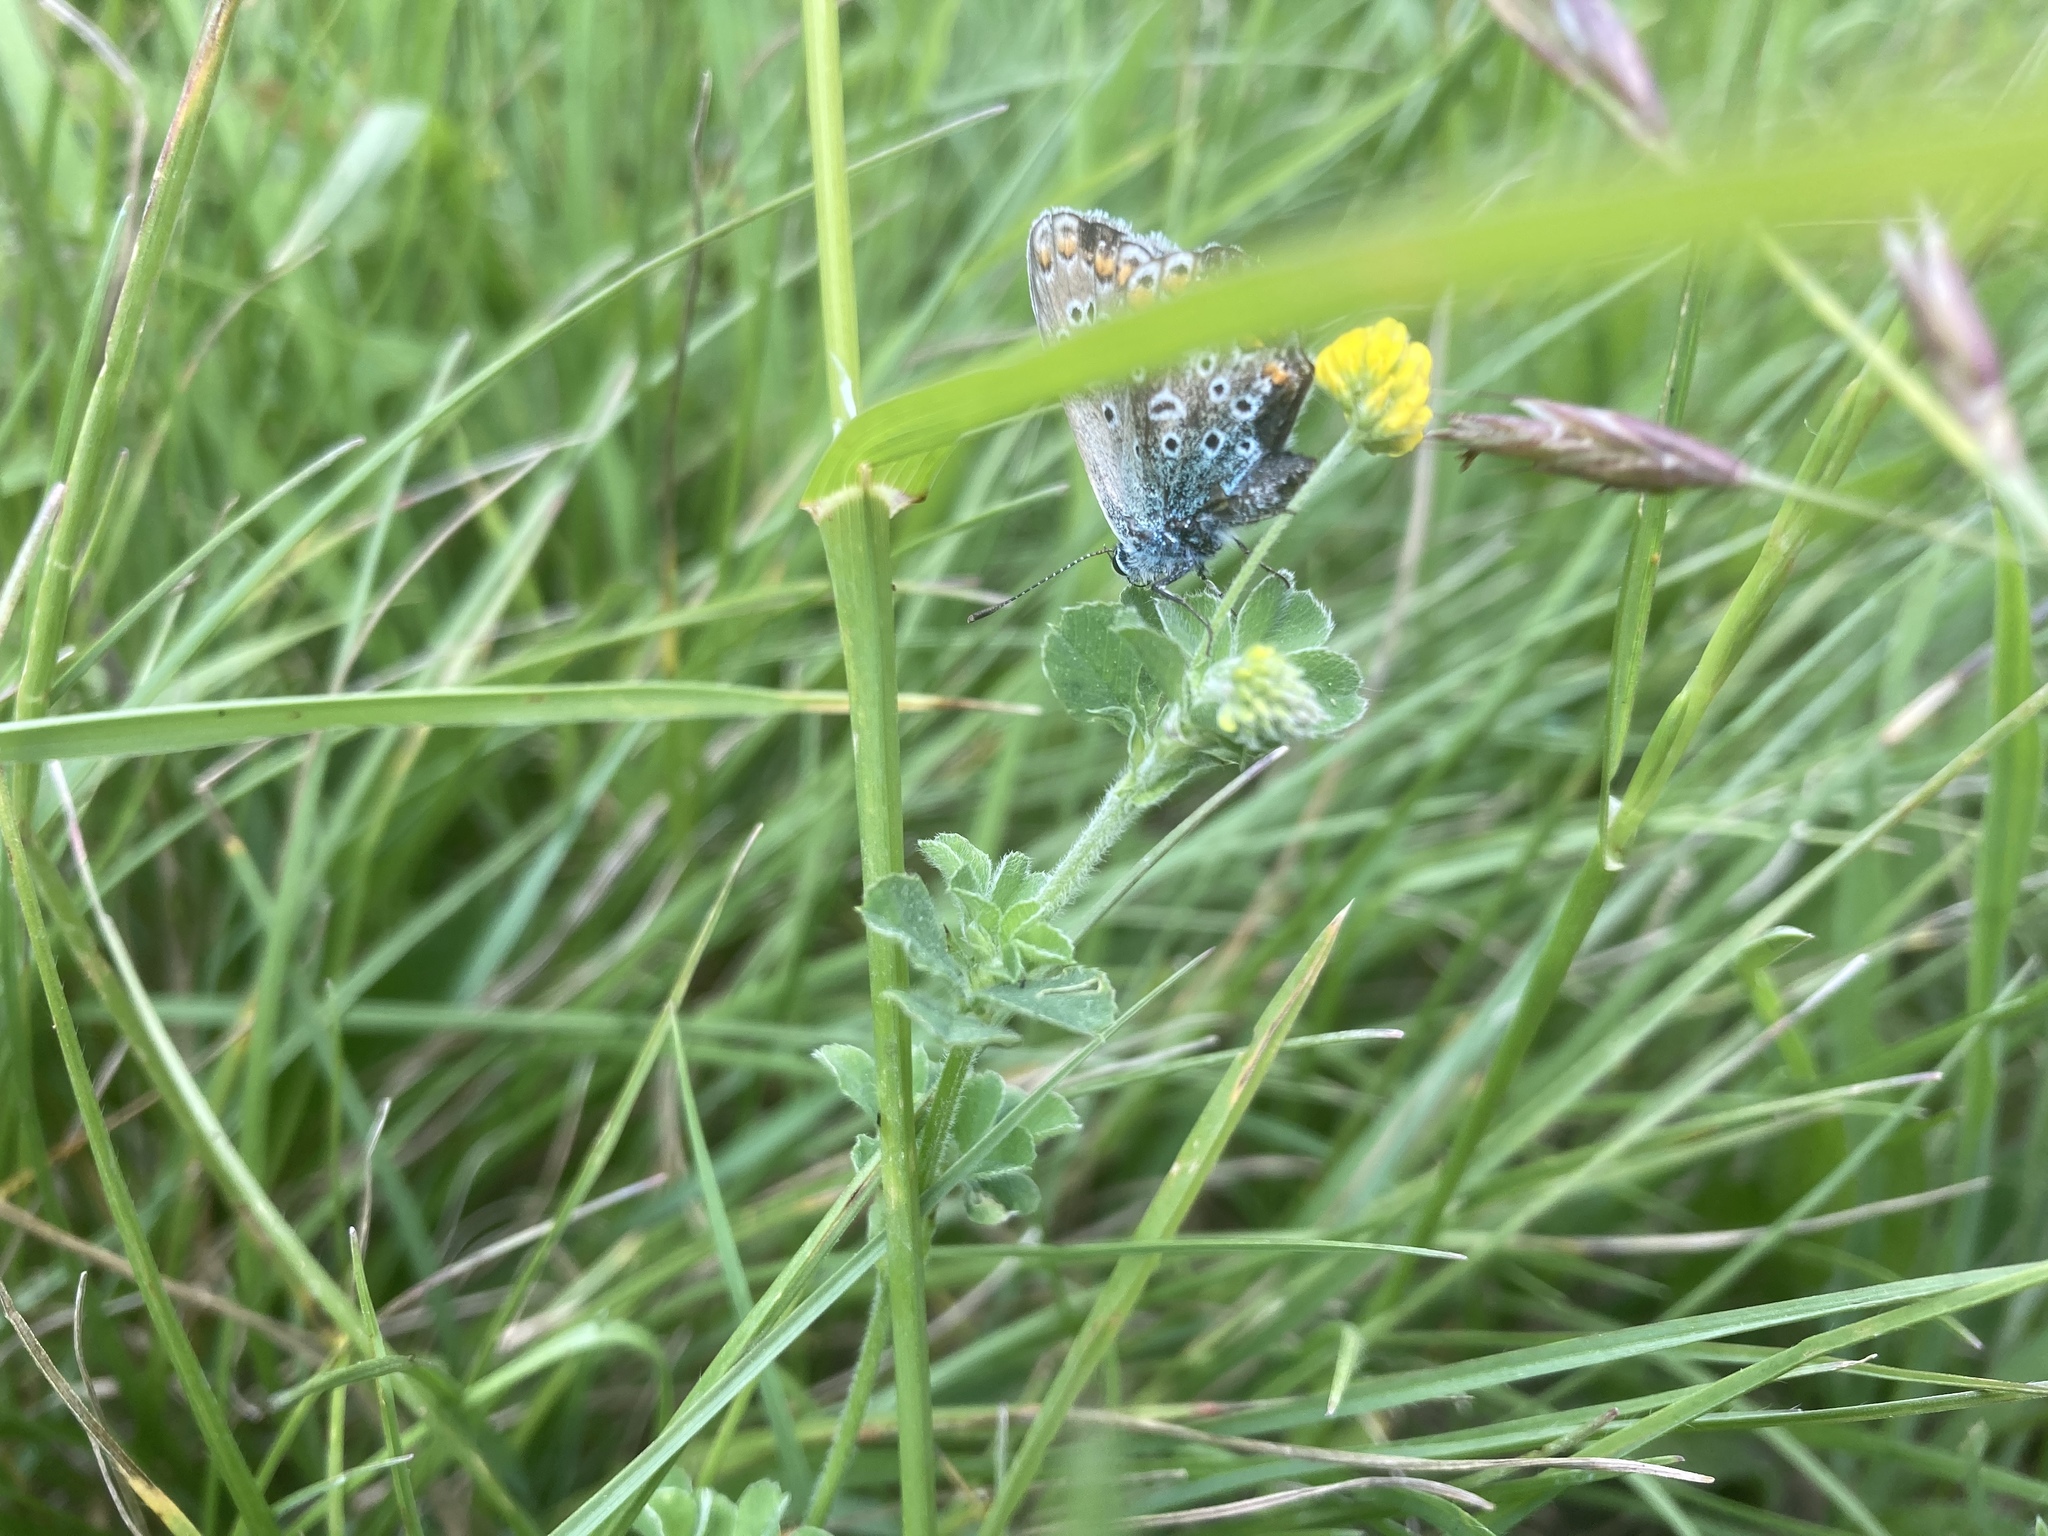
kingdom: Animalia
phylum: Arthropoda
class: Insecta
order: Lepidoptera
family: Lycaenidae
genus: Polyommatus
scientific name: Polyommatus icarus
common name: Common blue
